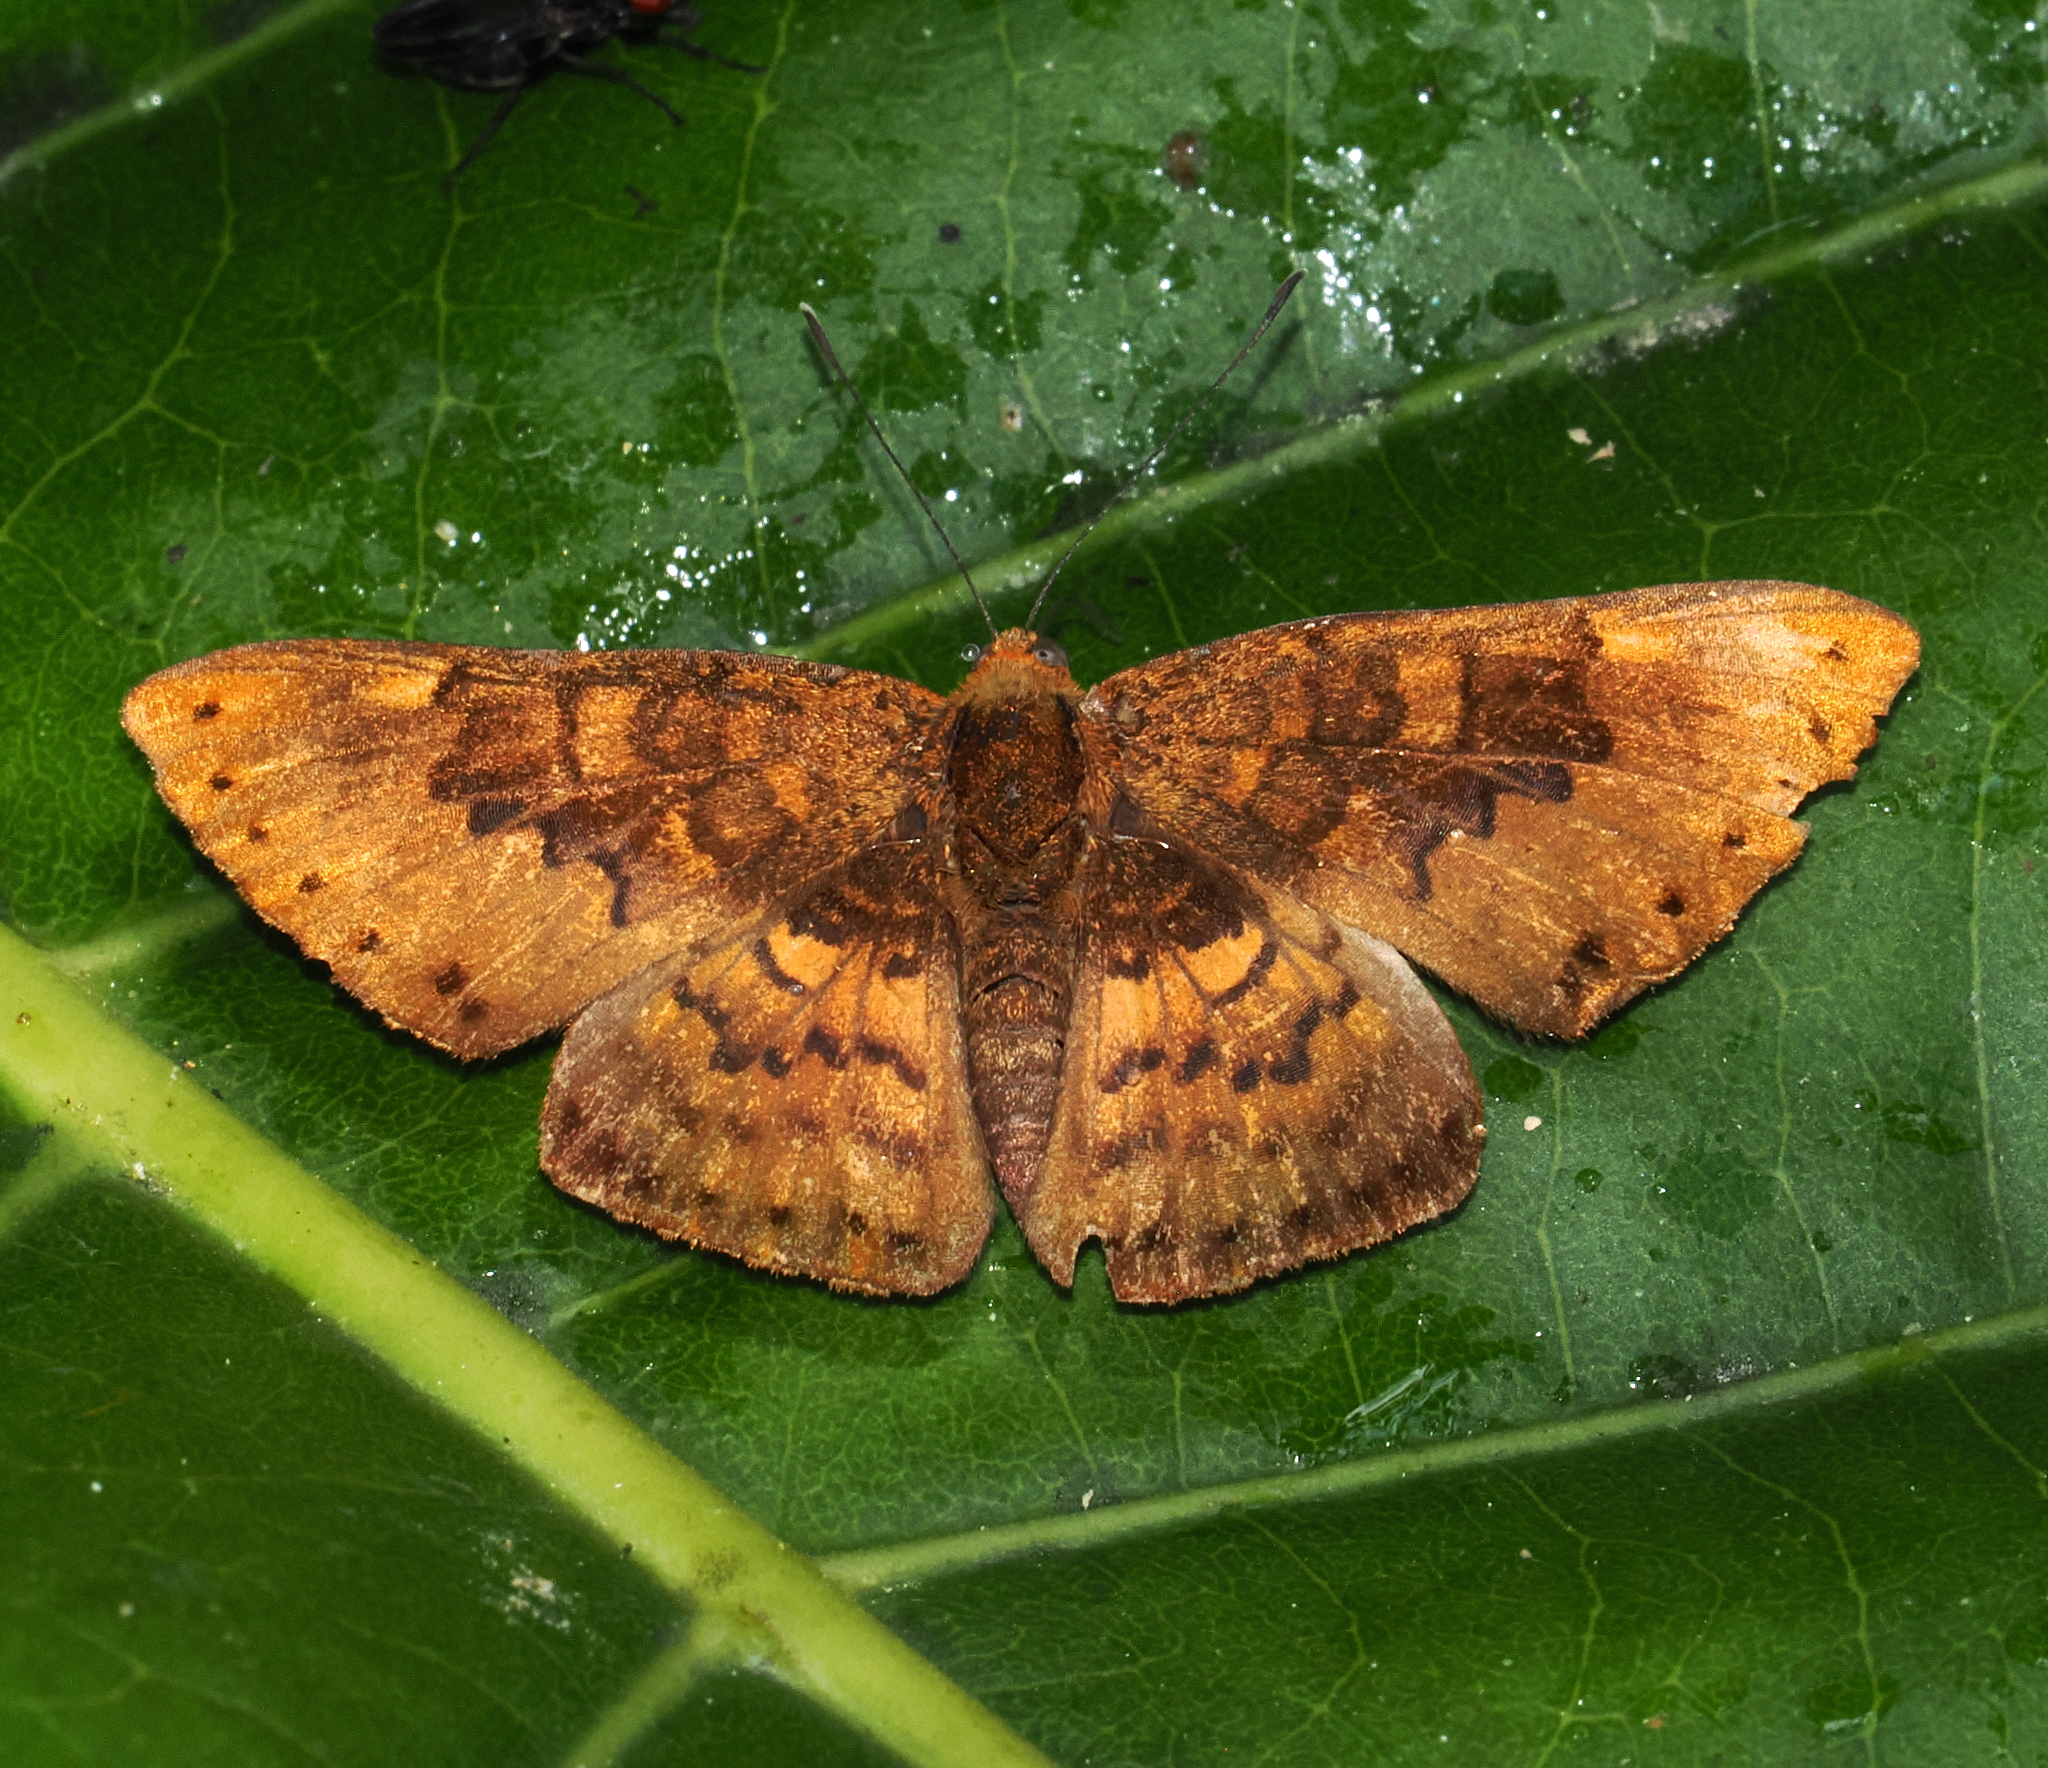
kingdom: Animalia
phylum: Arthropoda
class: Insecta
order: Lepidoptera
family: Lycaenidae
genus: Emesis
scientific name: Emesis brimo
